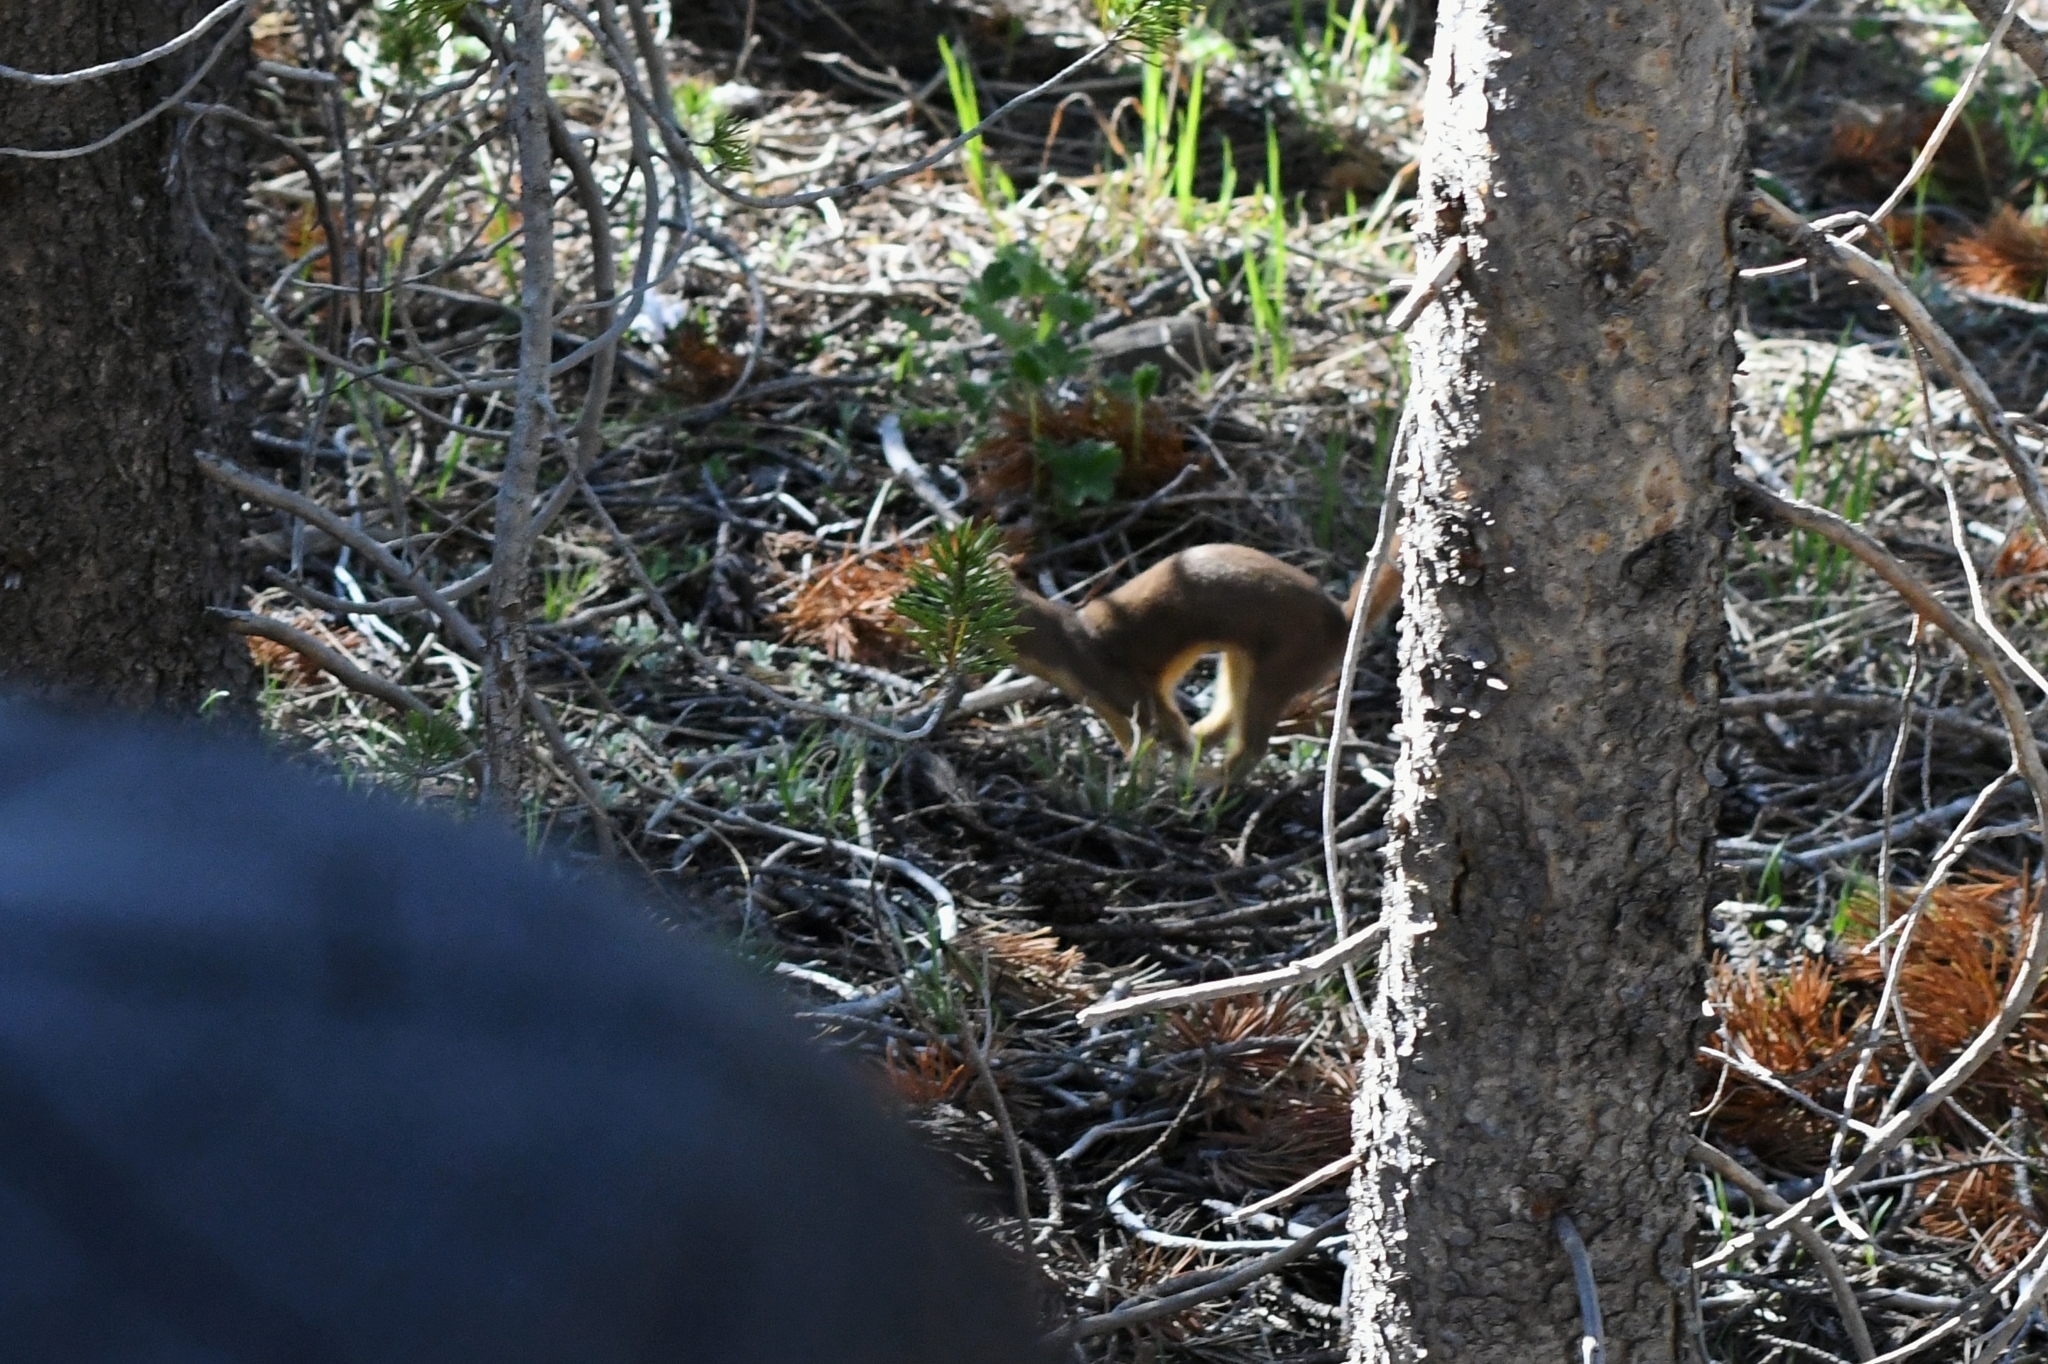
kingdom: Animalia
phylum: Chordata
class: Mammalia
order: Carnivora
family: Mustelidae
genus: Mustela
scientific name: Mustela
